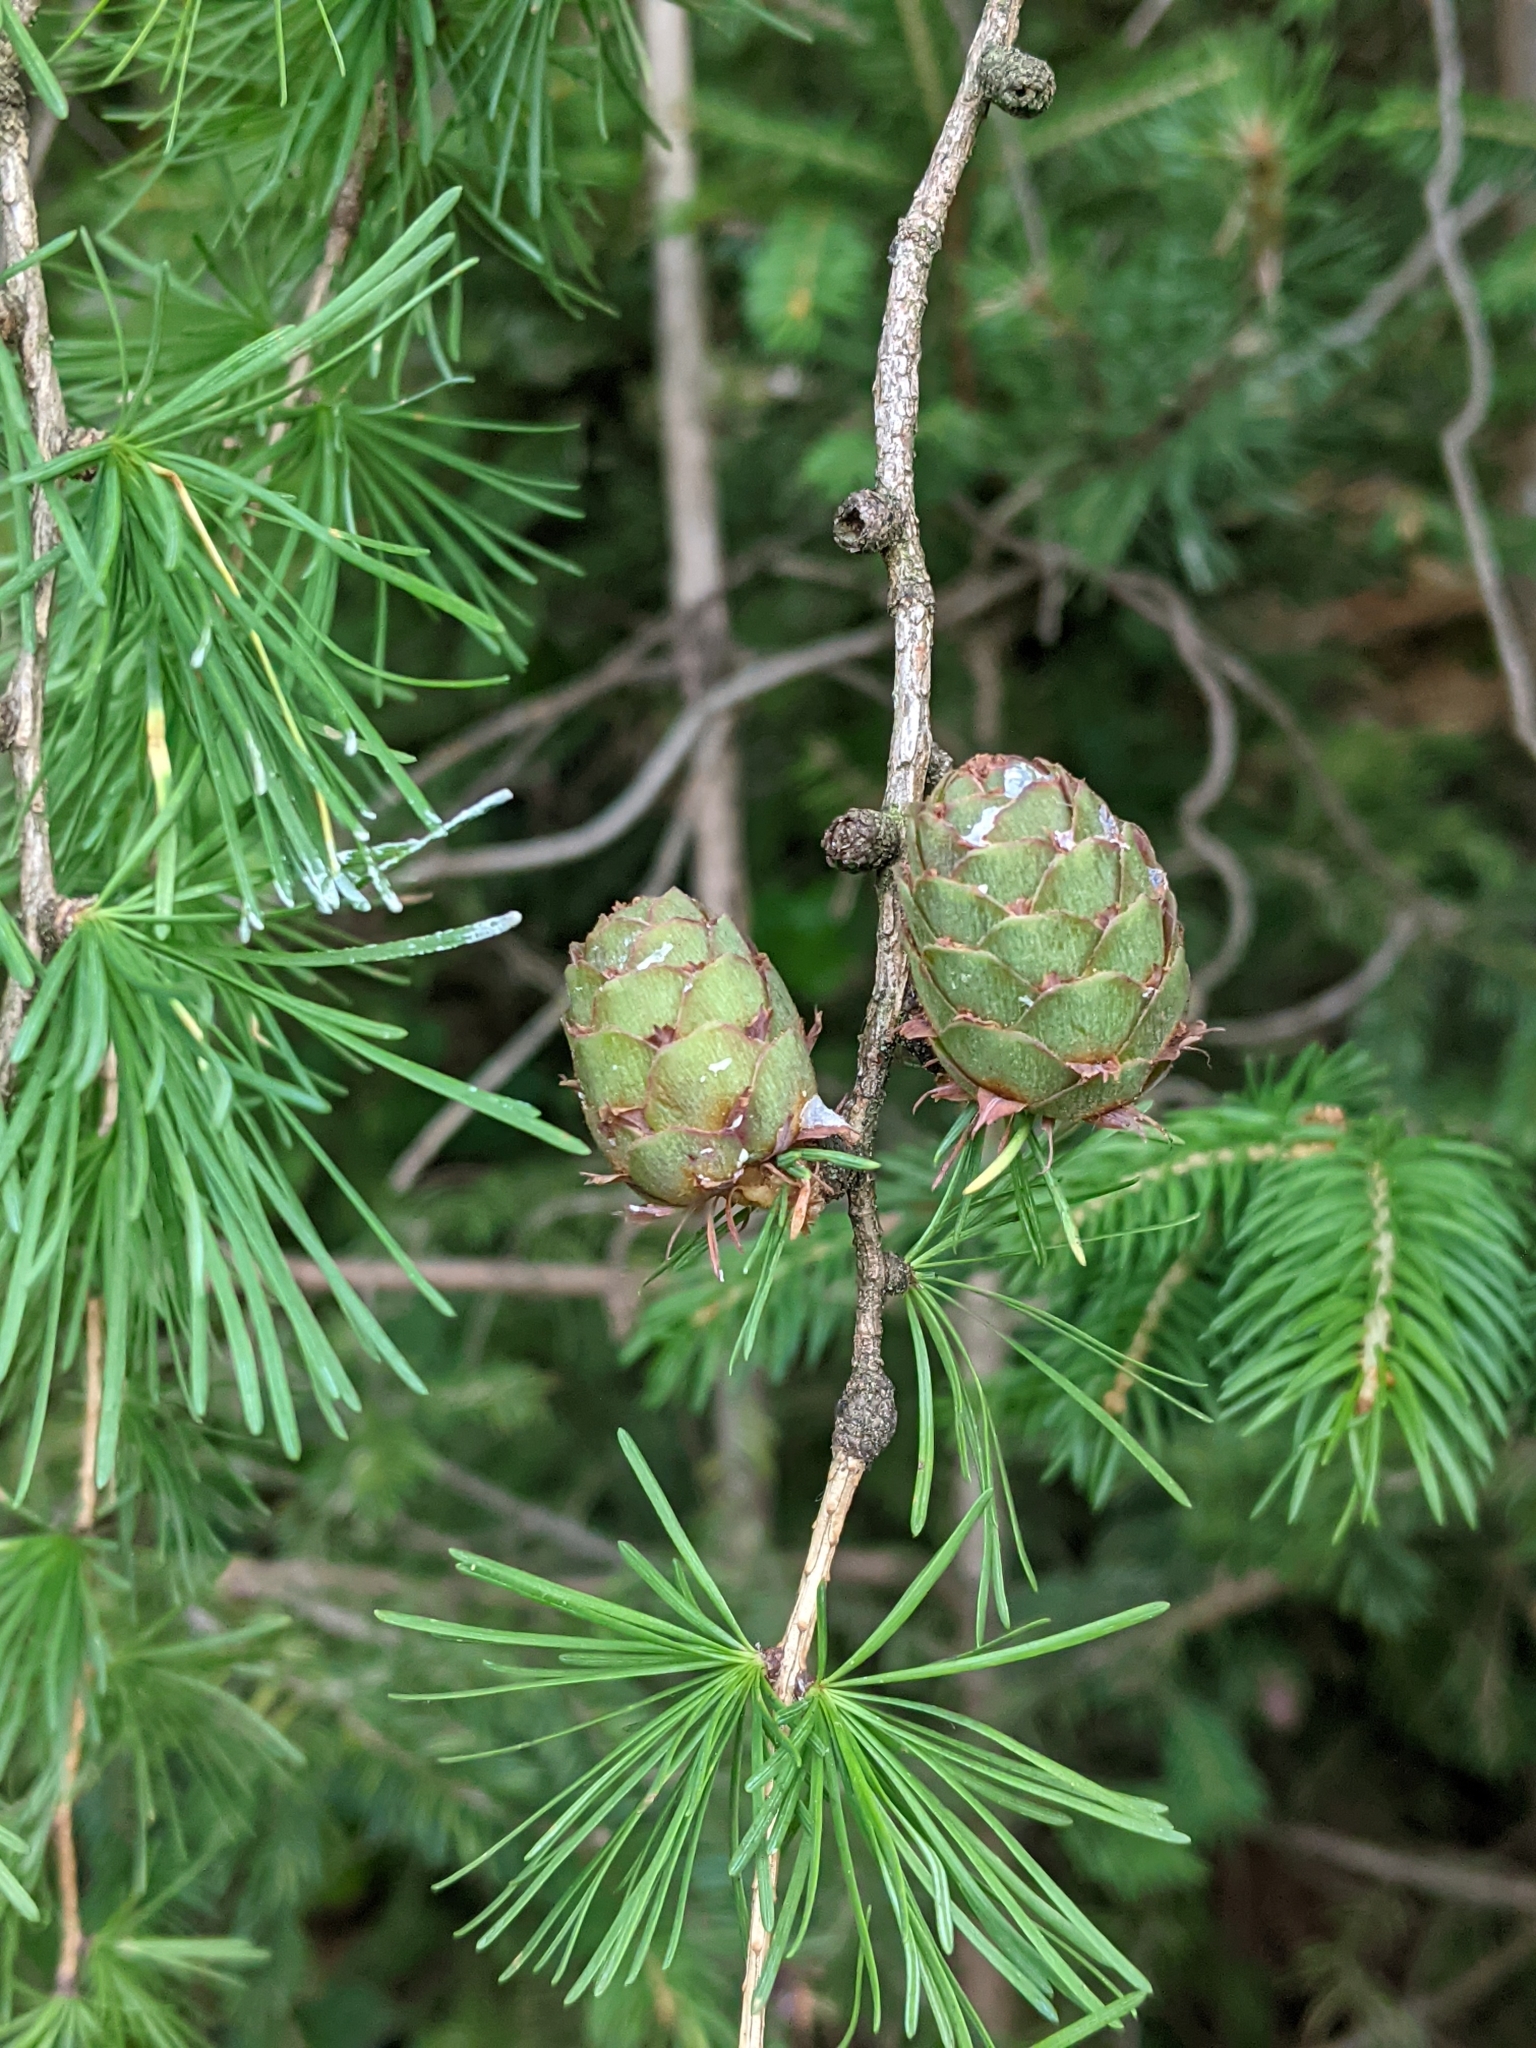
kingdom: Plantae
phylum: Tracheophyta
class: Pinopsida
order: Pinales
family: Pinaceae
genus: Larix
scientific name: Larix decidua
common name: European larch
